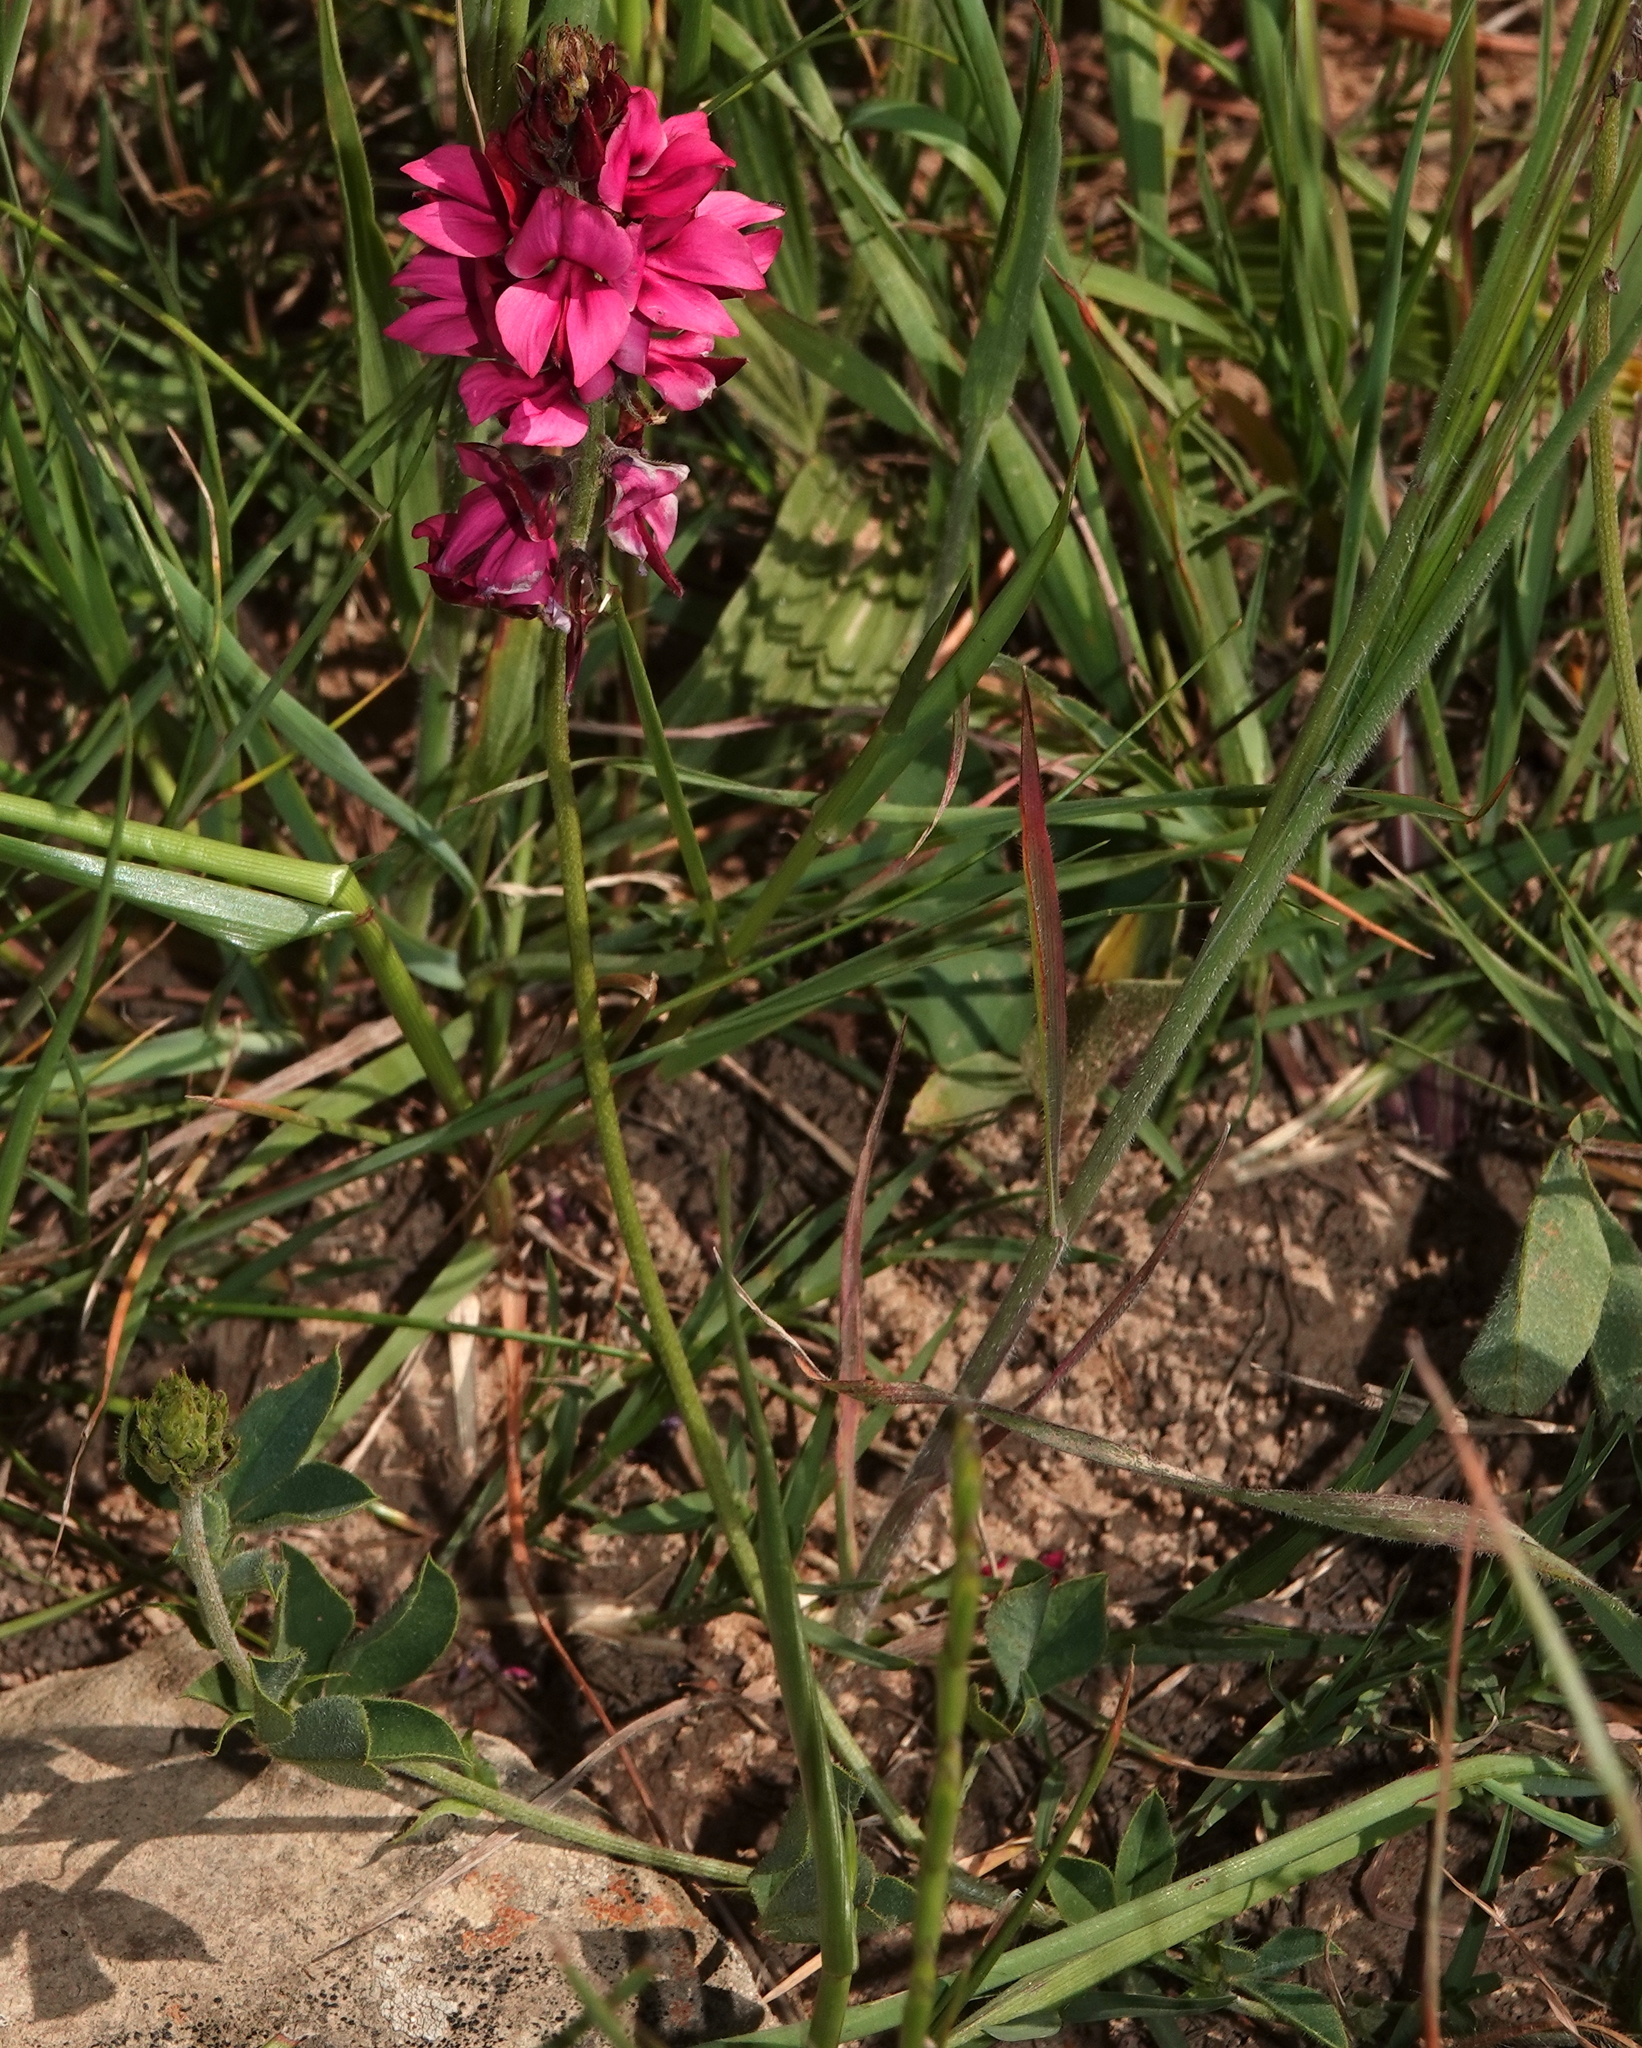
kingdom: Plantae
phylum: Tracheophyta
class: Magnoliopsida
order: Fabales
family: Fabaceae
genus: Indigofera
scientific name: Indigofera incana
